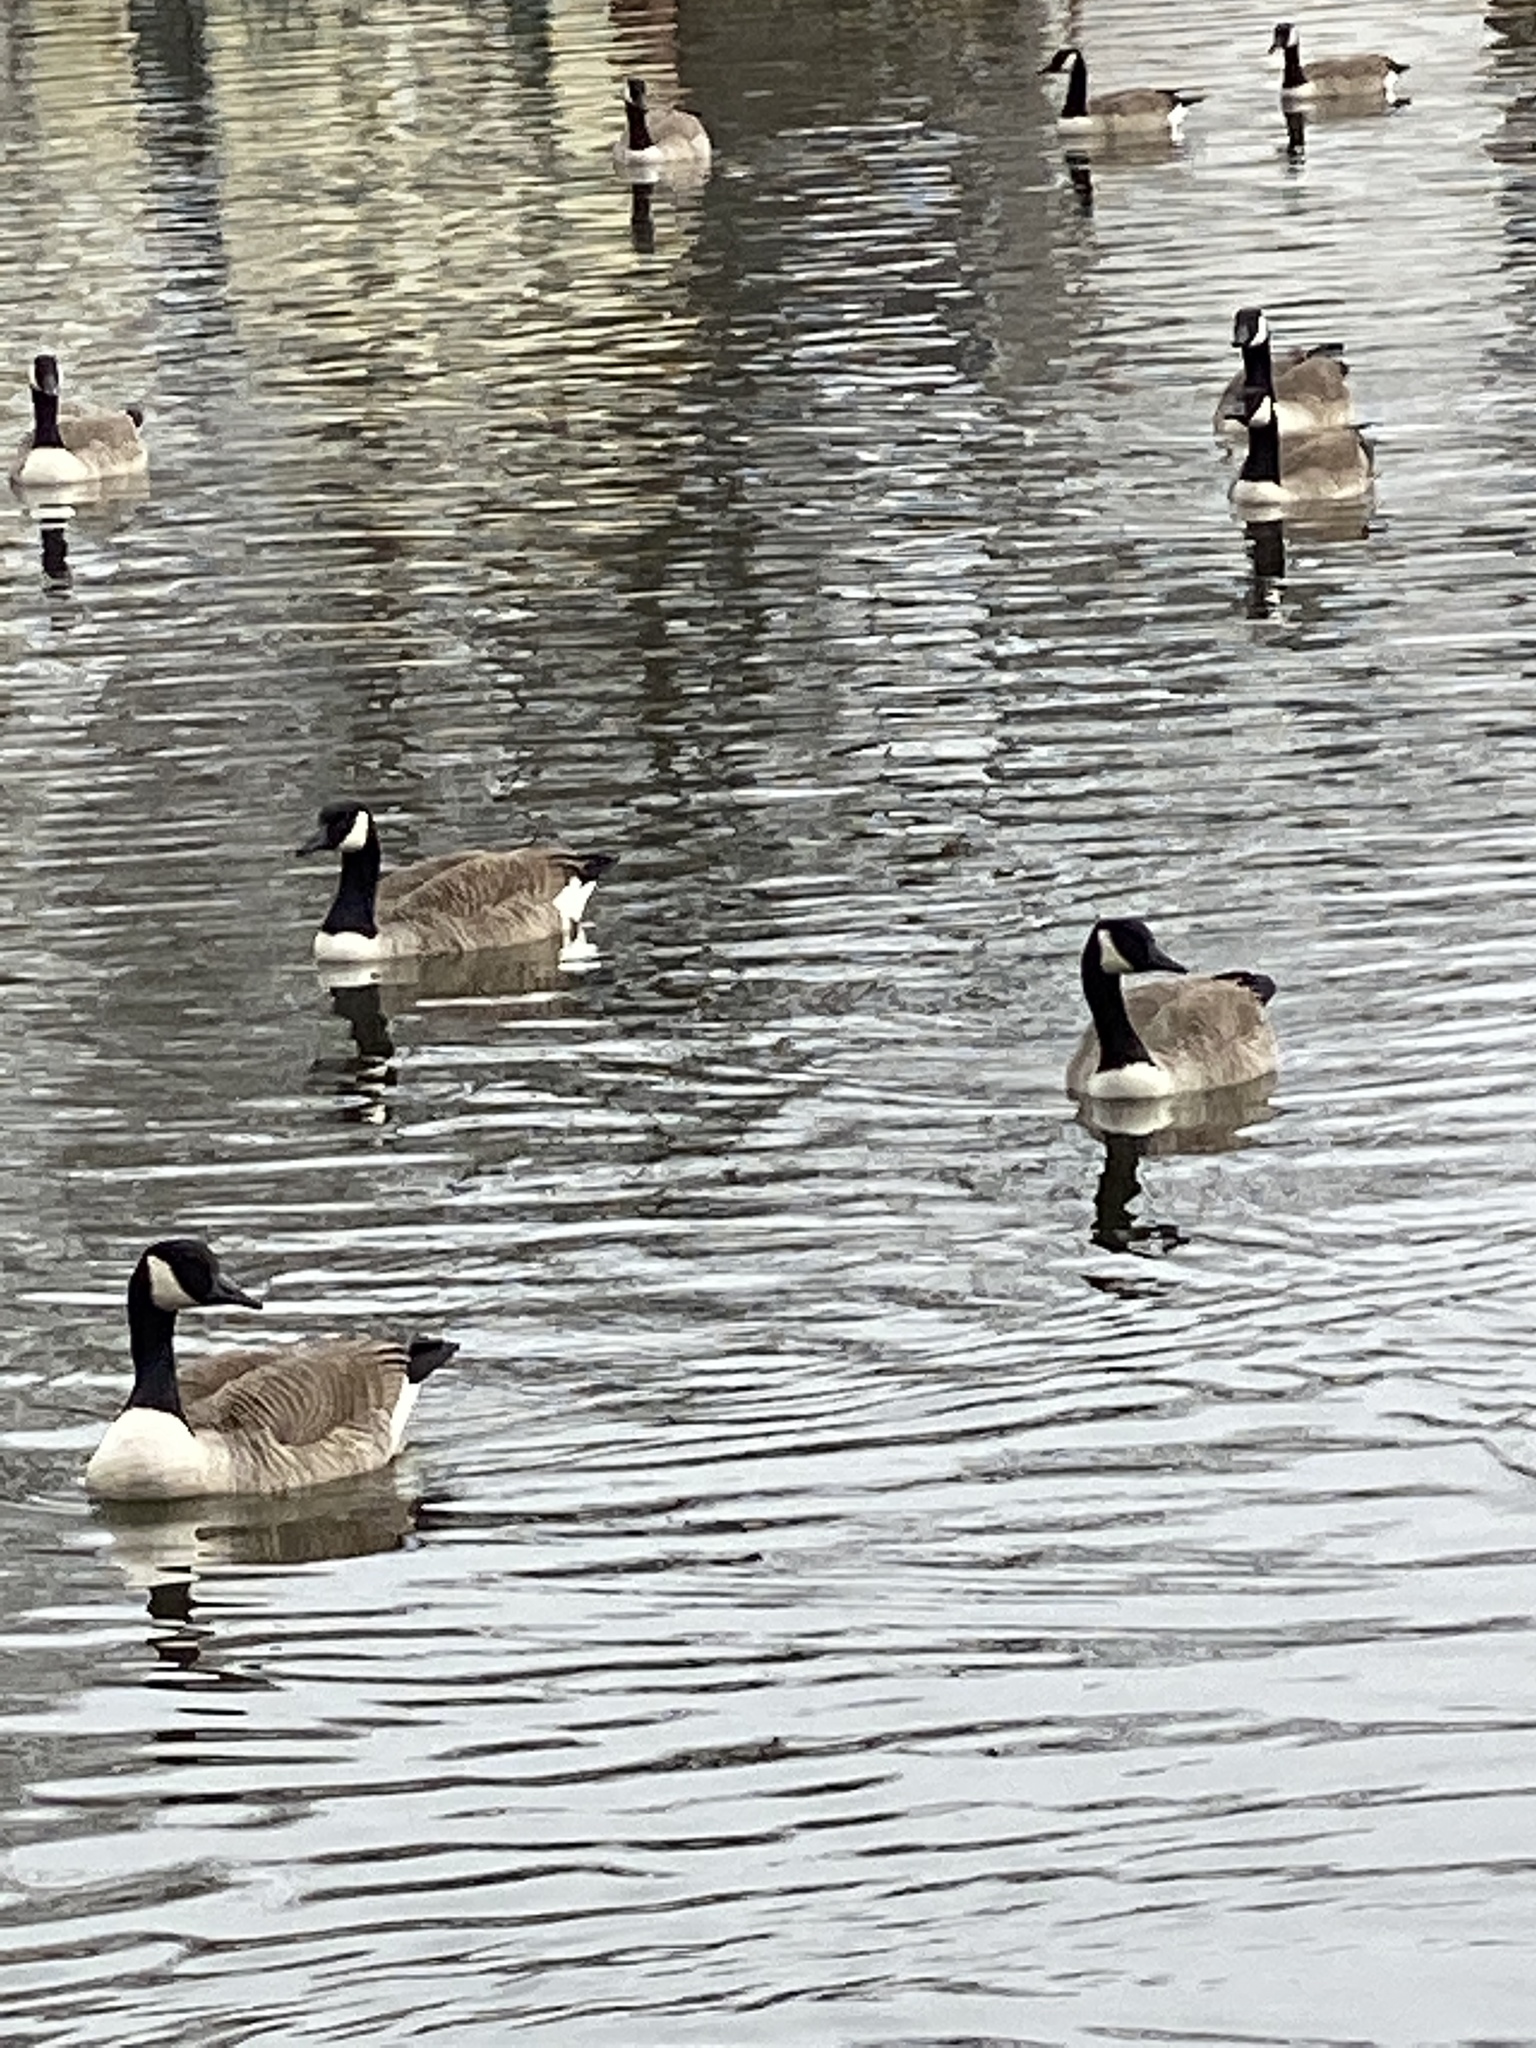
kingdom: Animalia
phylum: Chordata
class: Aves
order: Anseriformes
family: Anatidae
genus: Branta
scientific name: Branta canadensis
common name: Canada goose
